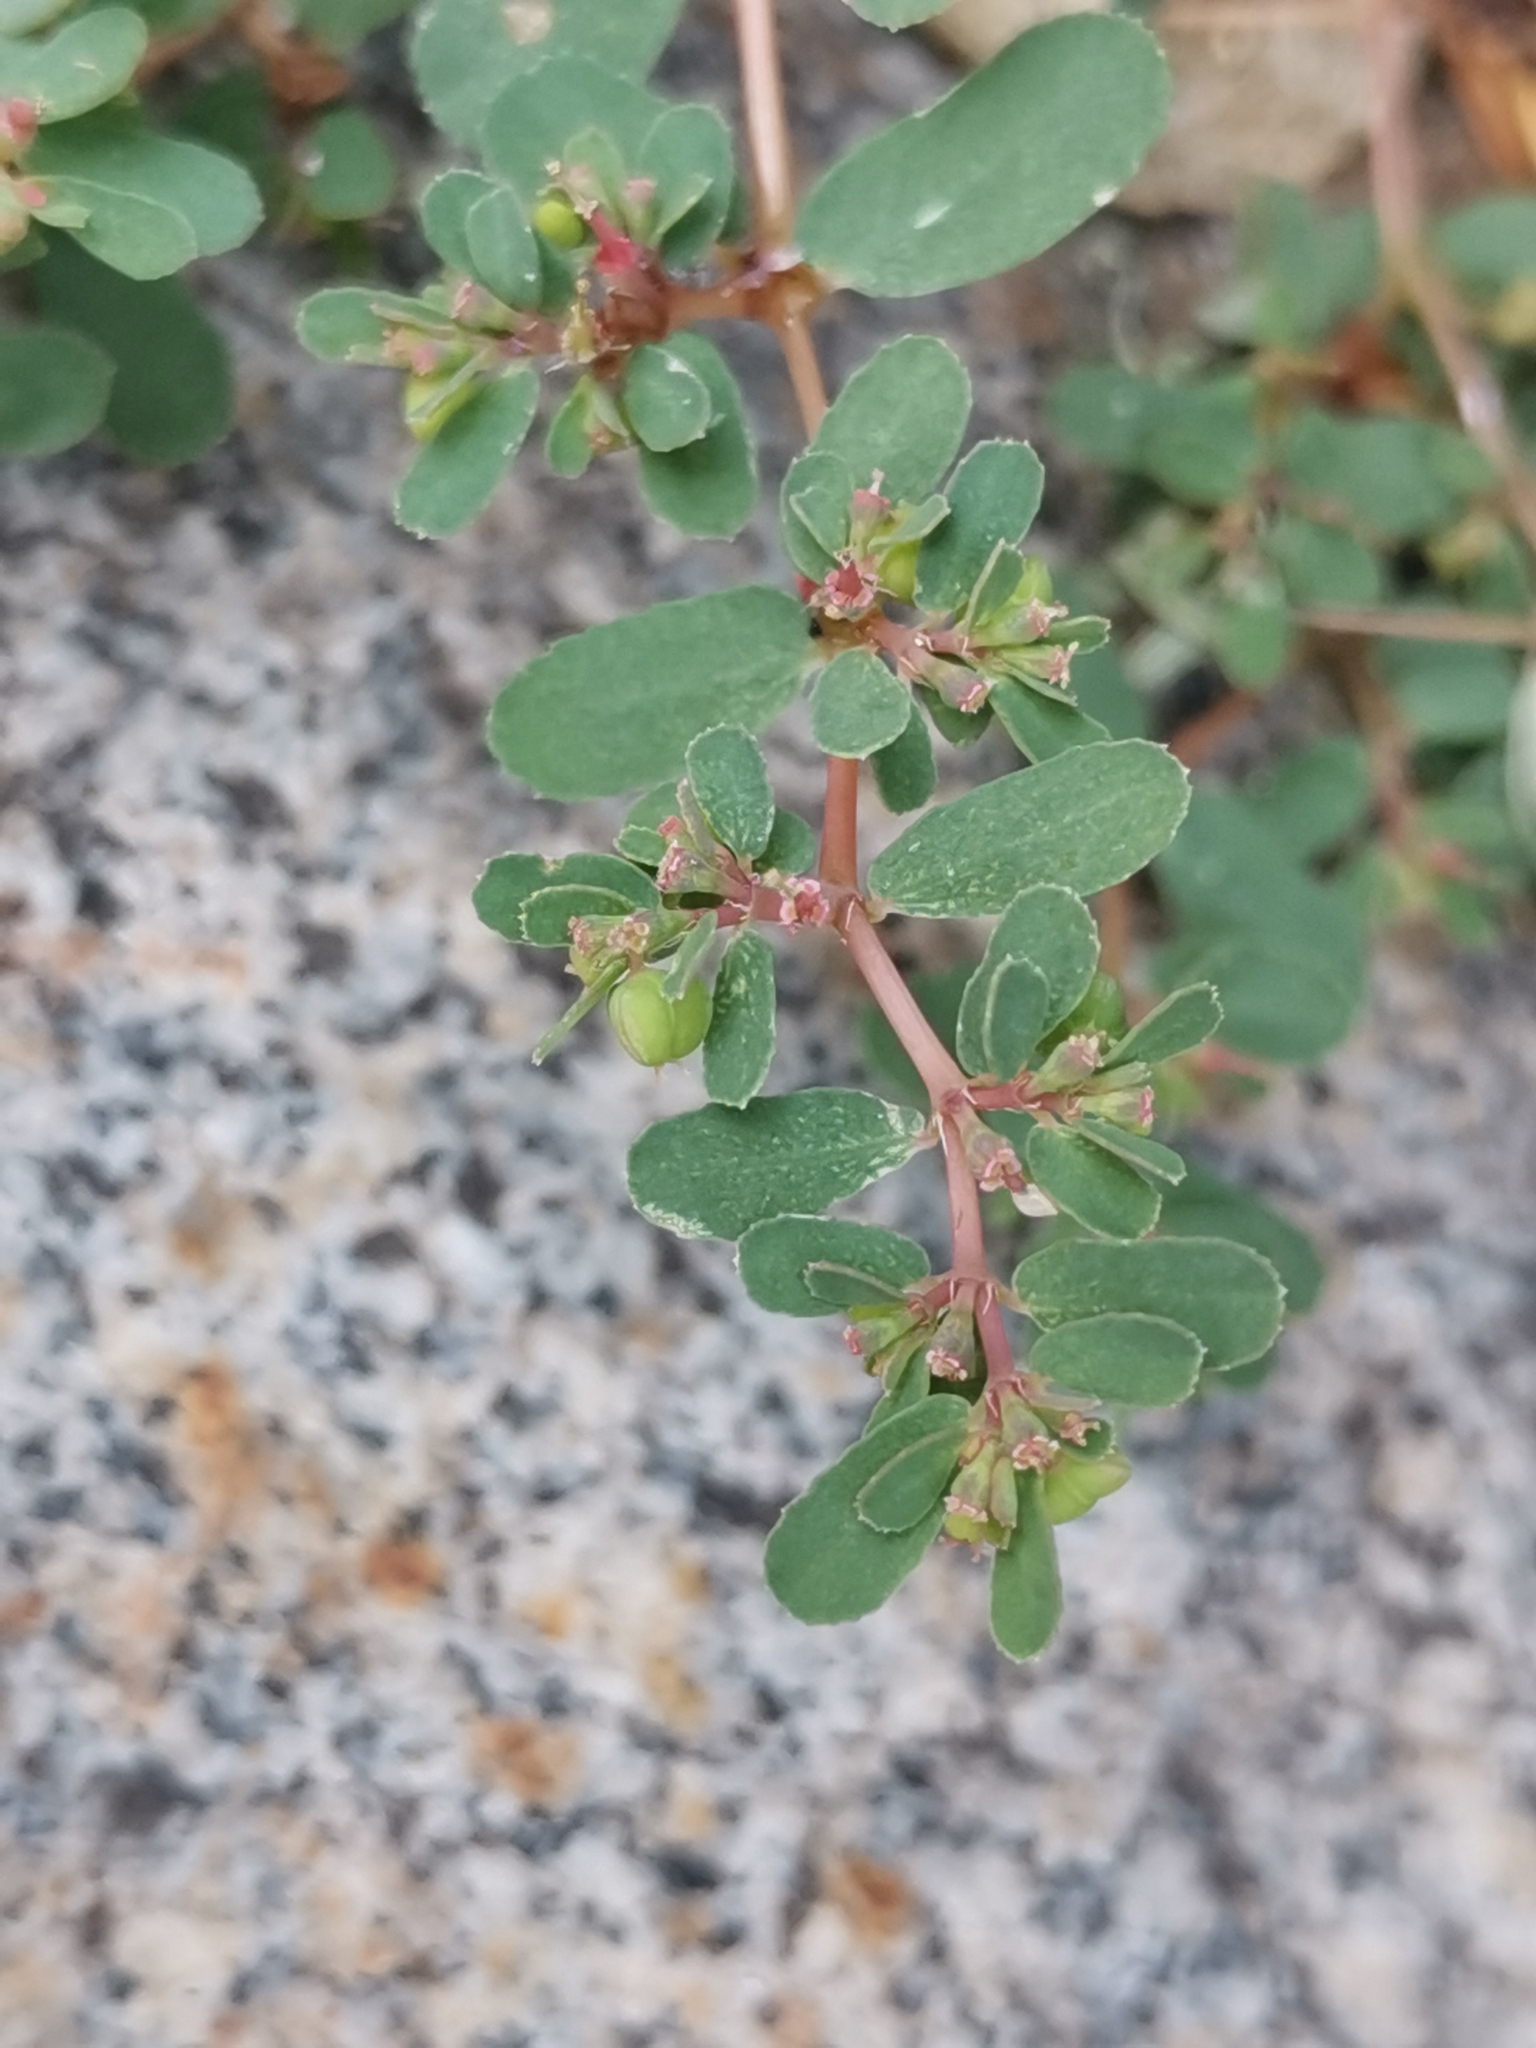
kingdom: Plantae
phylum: Tracheophyta
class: Magnoliopsida
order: Malpighiales
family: Euphorbiaceae
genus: Euphorbia
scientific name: Euphorbia humifusa
